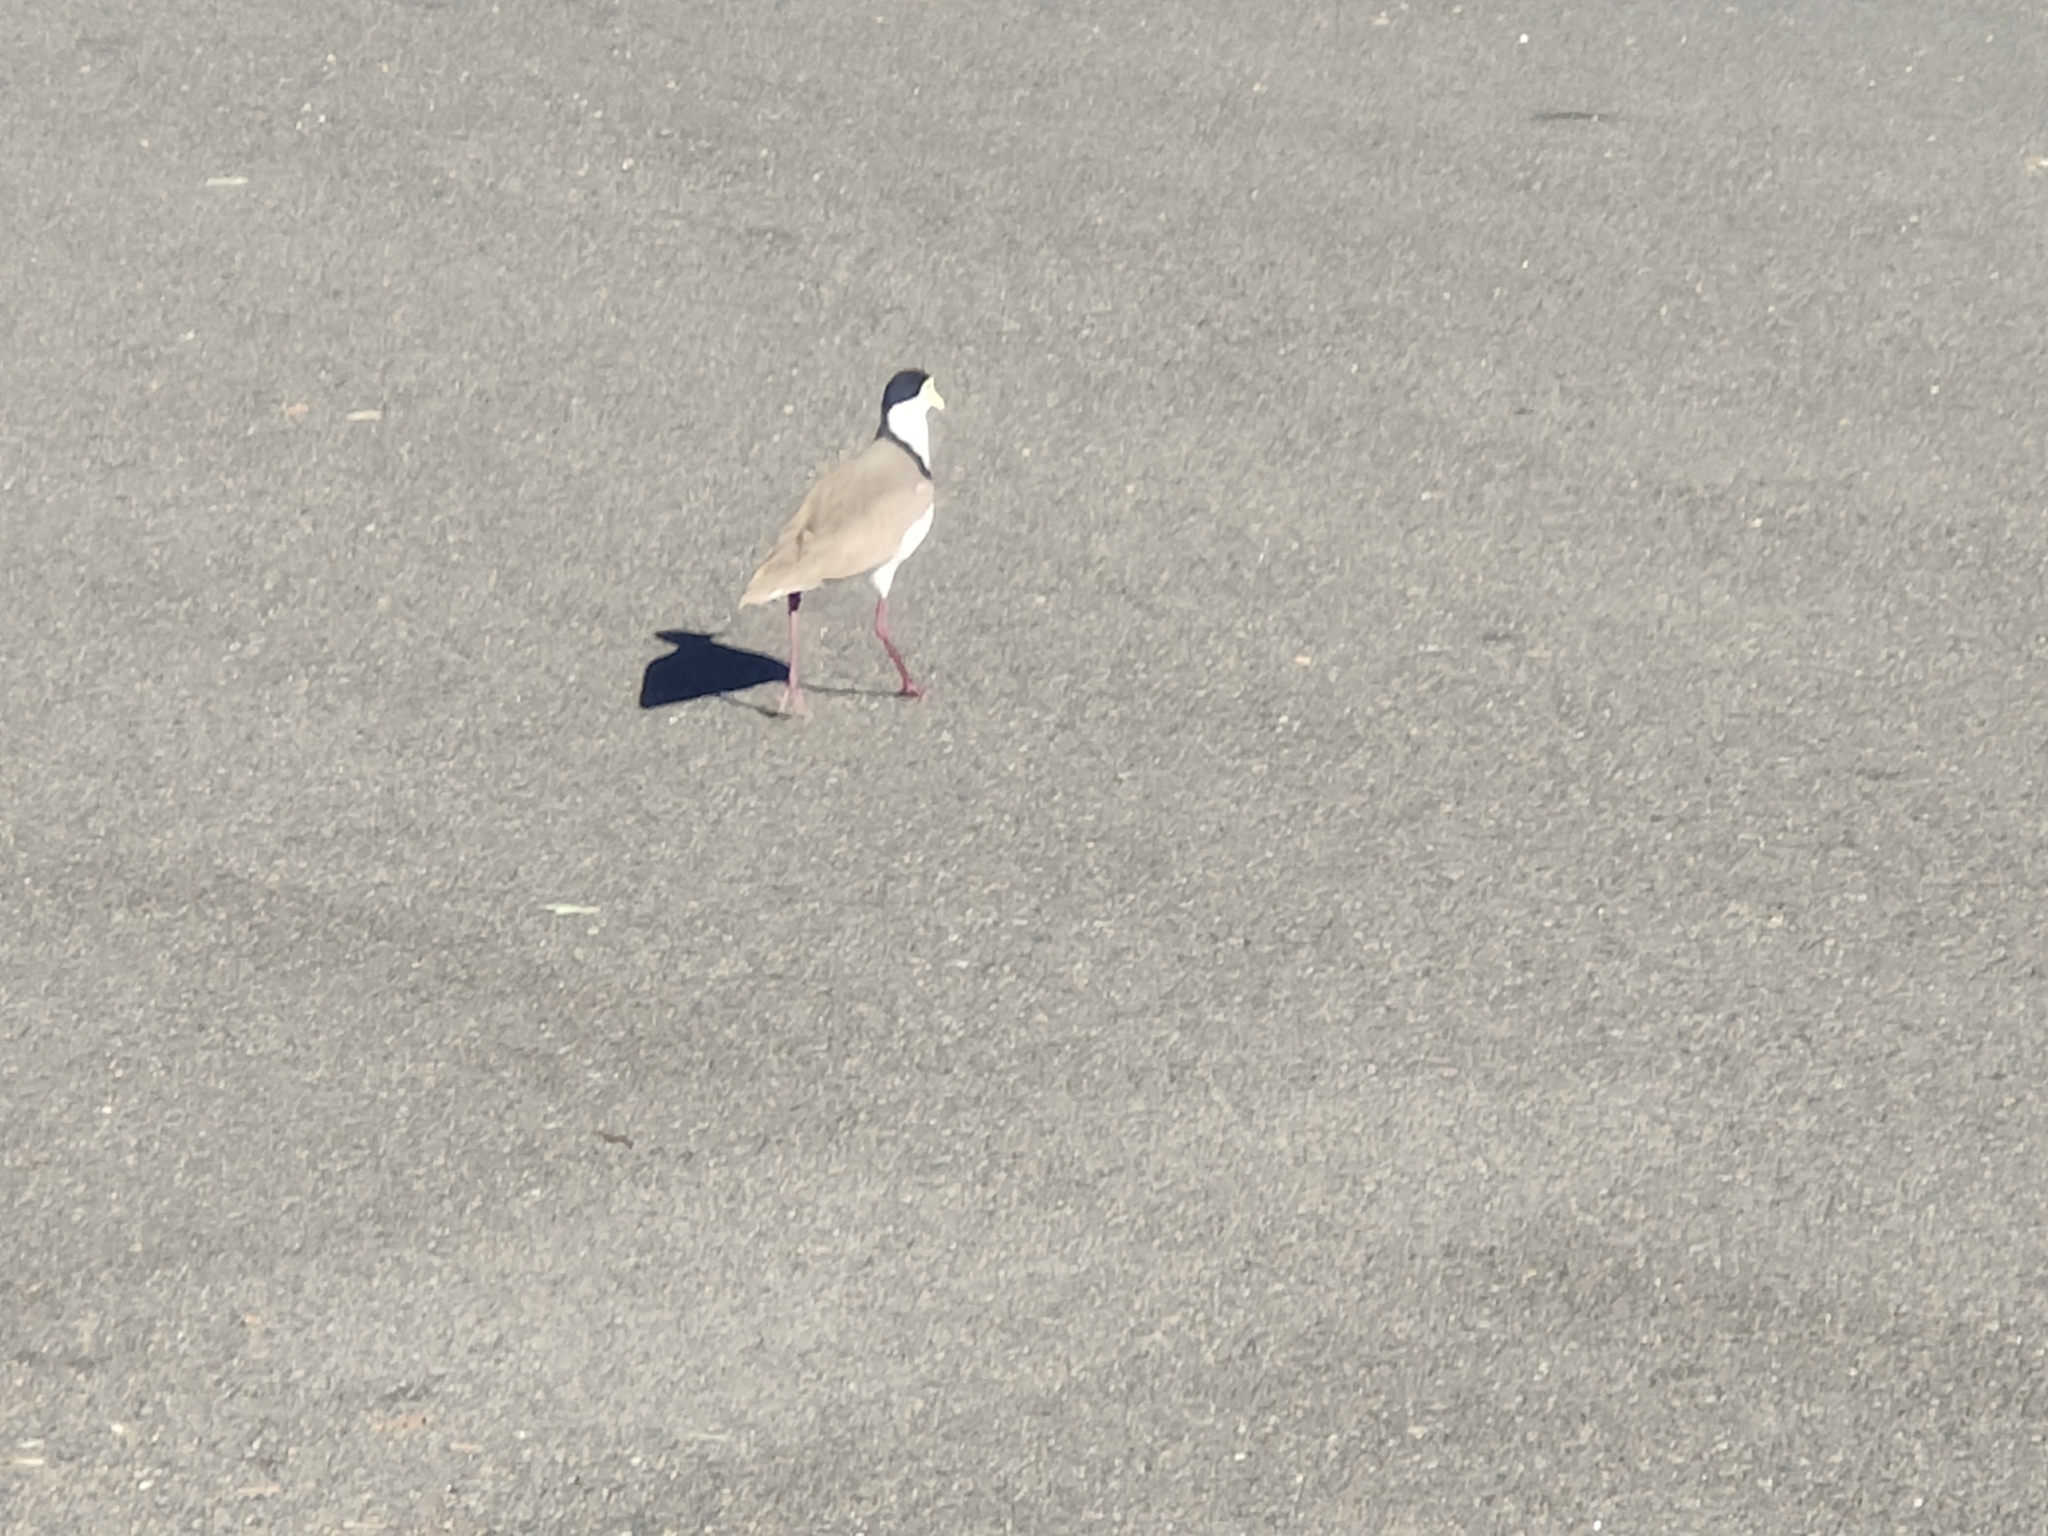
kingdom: Animalia
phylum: Chordata
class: Aves
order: Charadriiformes
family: Charadriidae
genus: Vanellus
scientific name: Vanellus miles
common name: Masked lapwing
